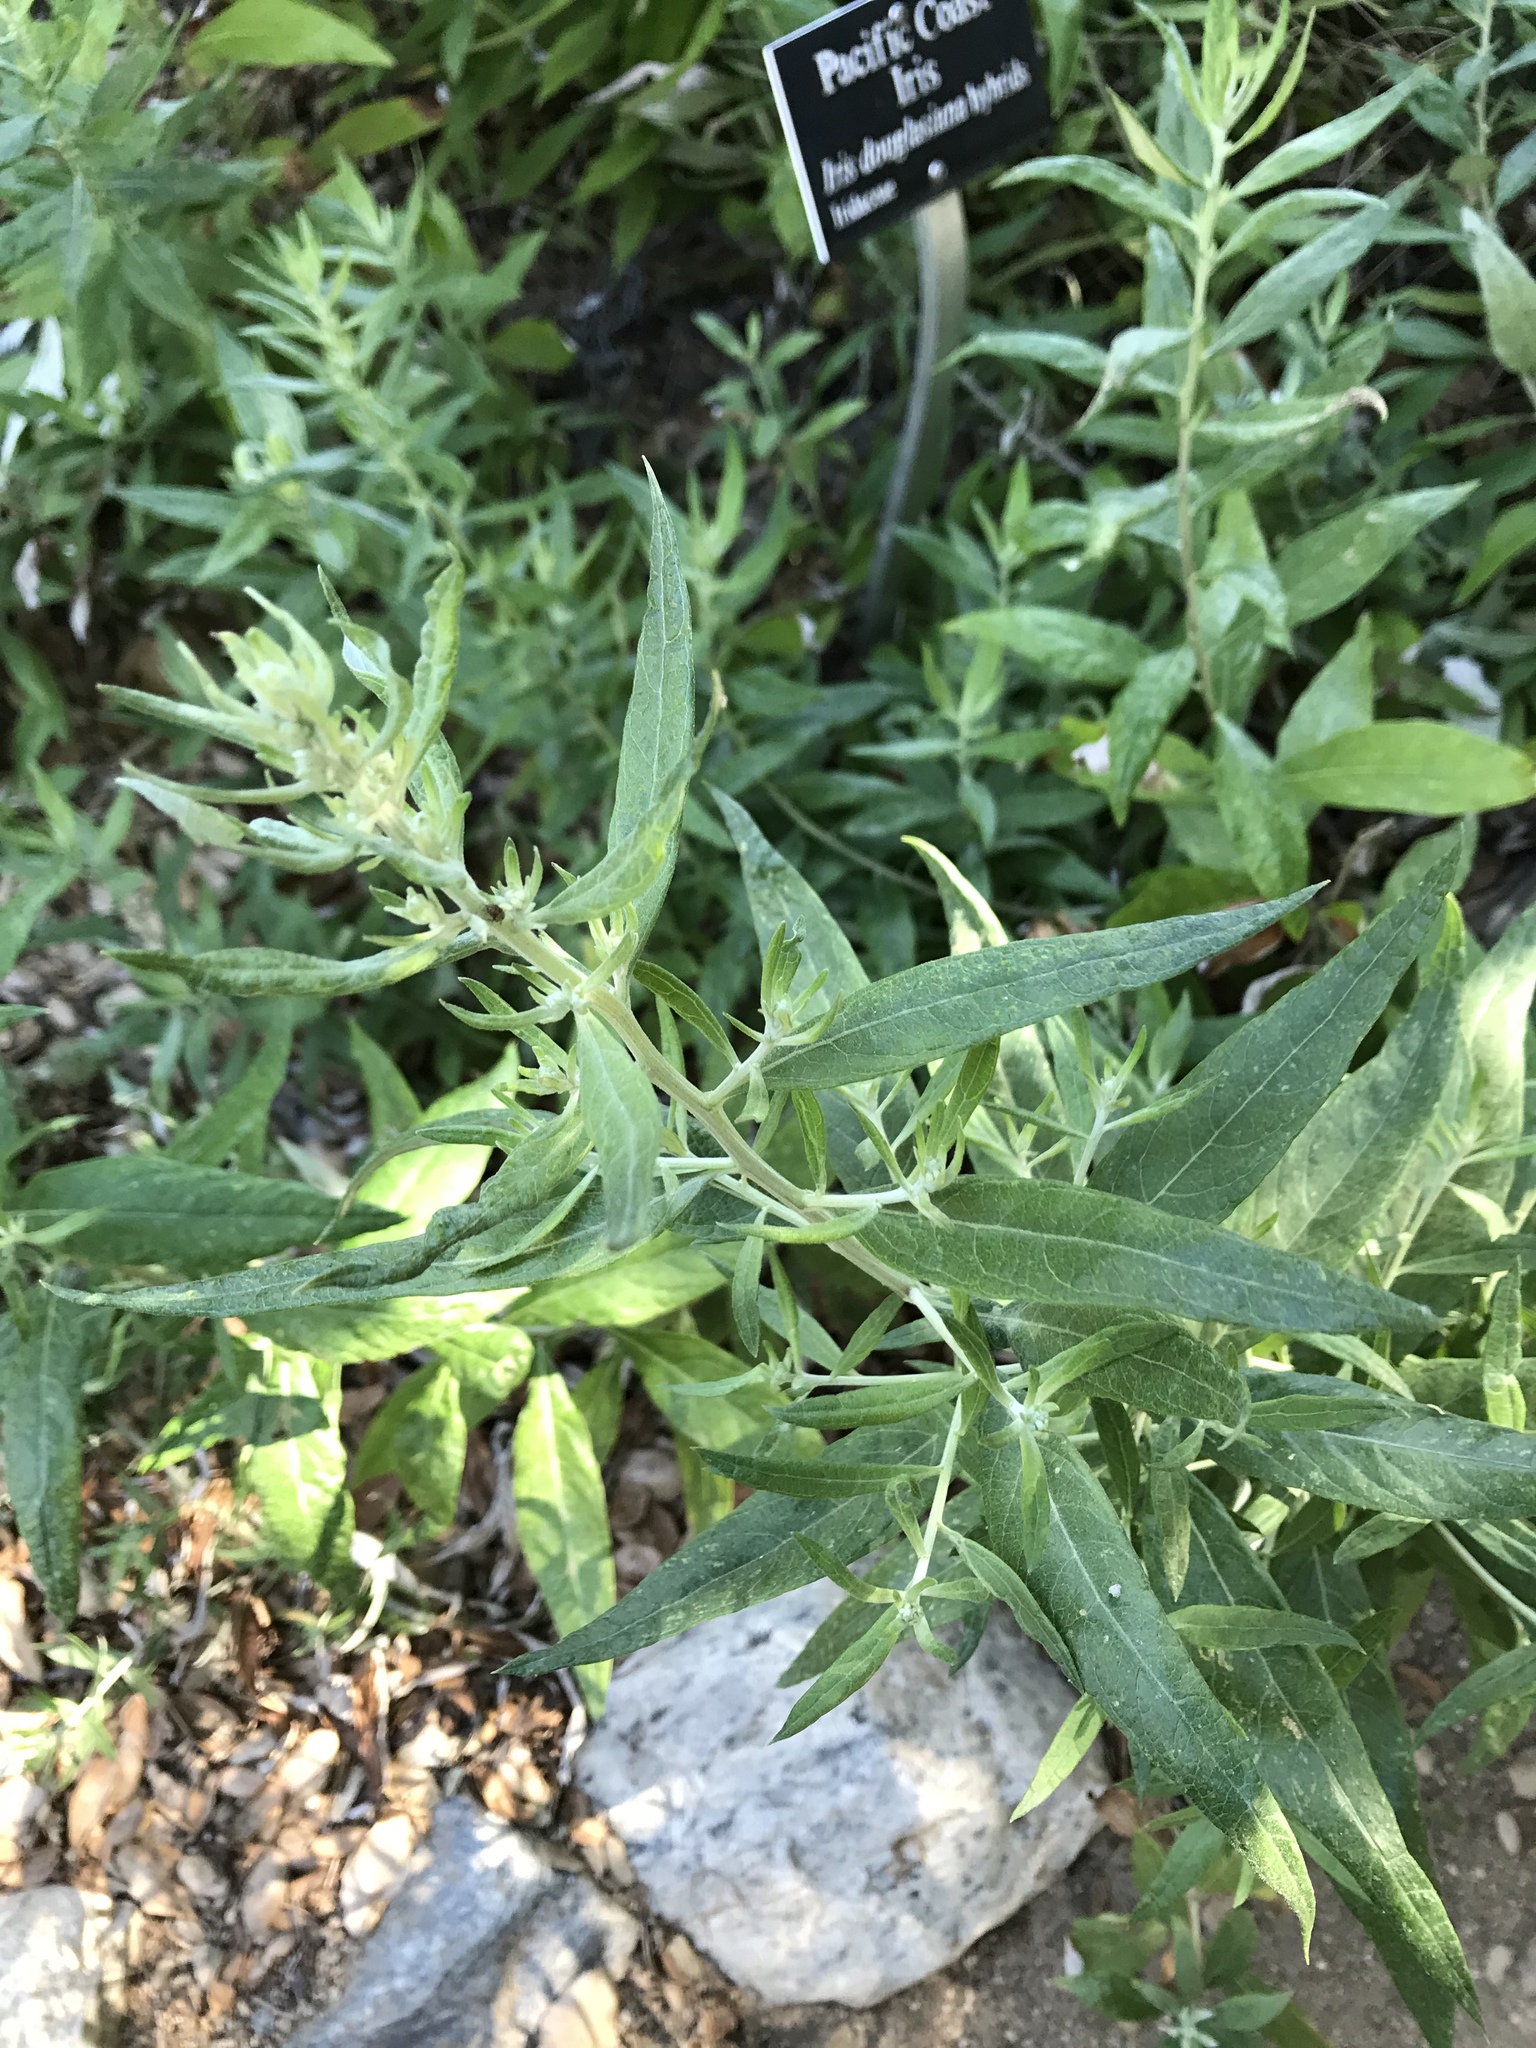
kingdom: Plantae
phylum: Tracheophyta
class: Magnoliopsida
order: Asterales
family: Asteraceae
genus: Artemisia
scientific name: Artemisia douglasiana
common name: Northwest mugwort
